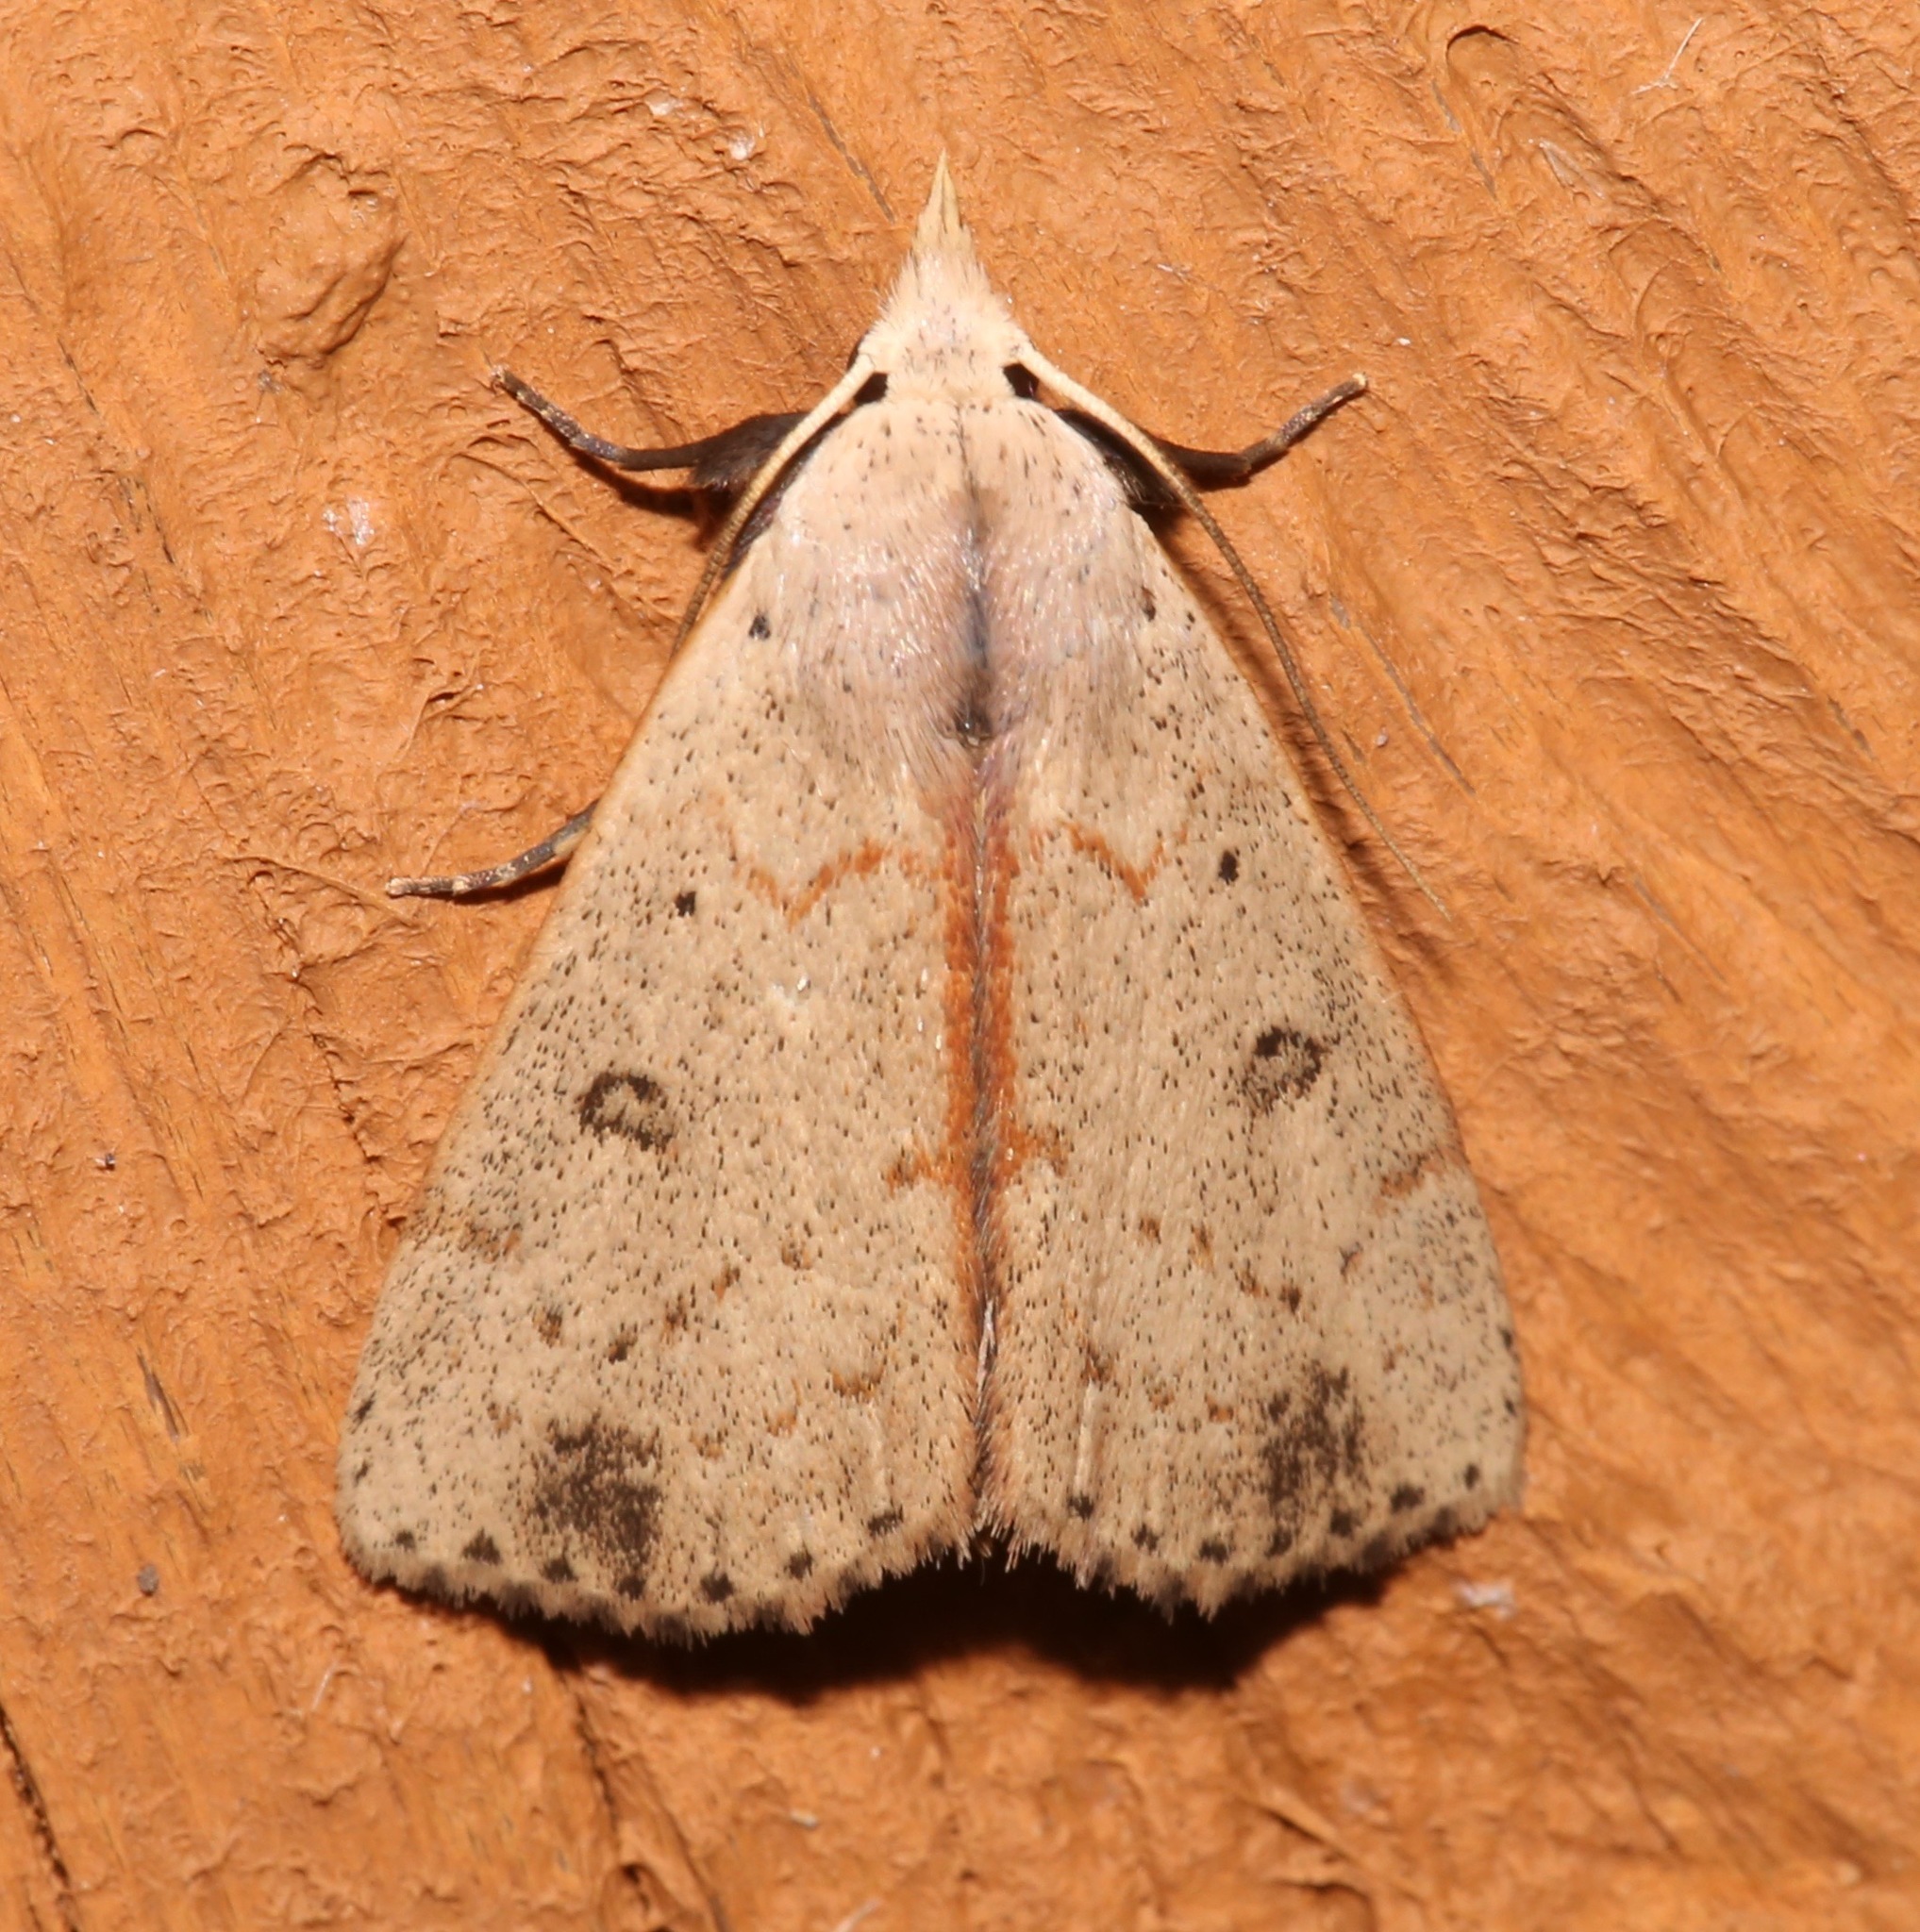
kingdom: Animalia
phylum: Arthropoda
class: Insecta
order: Lepidoptera
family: Erebidae
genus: Scolecocampa
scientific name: Scolecocampa liburna
